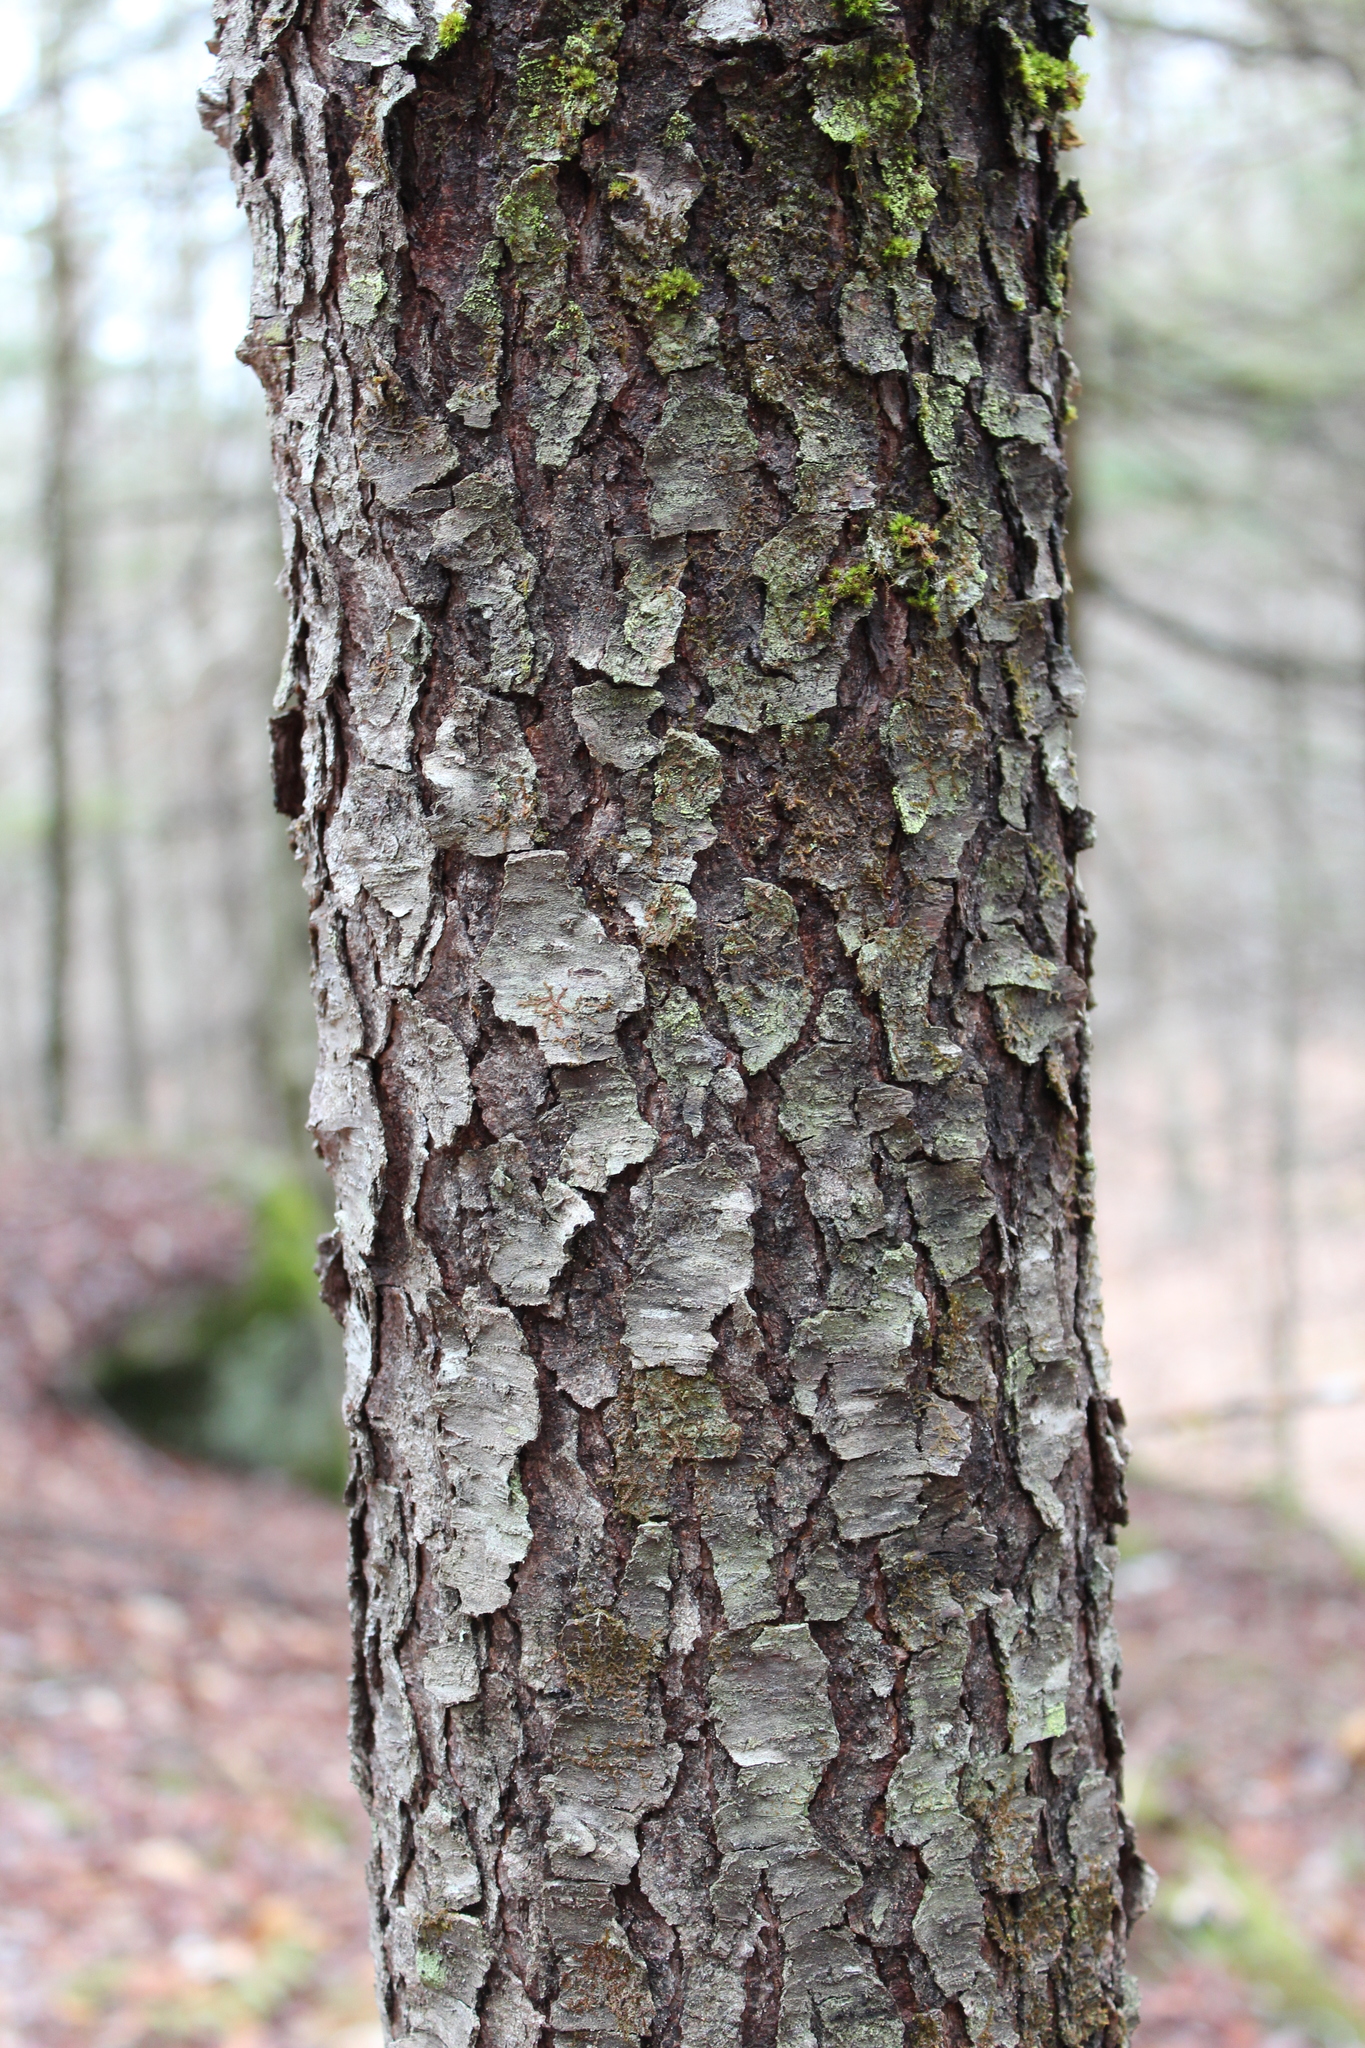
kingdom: Plantae
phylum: Tracheophyta
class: Magnoliopsida
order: Rosales
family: Rosaceae
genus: Prunus
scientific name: Prunus serotina
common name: Black cherry
